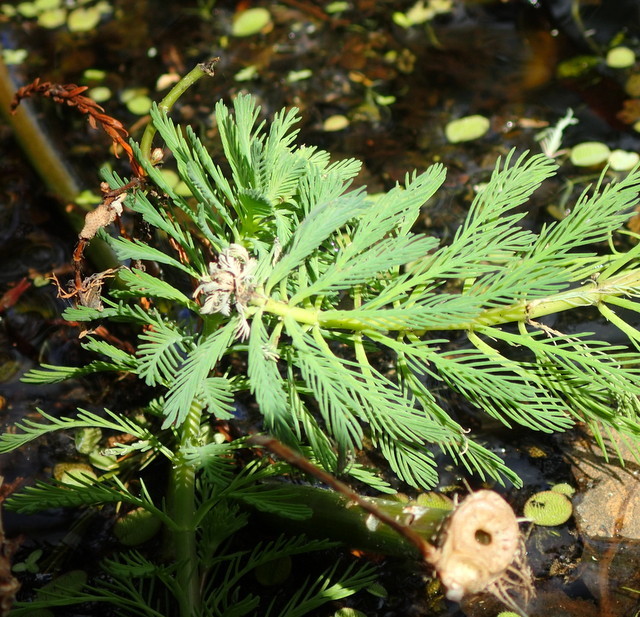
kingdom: Plantae
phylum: Tracheophyta
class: Magnoliopsida
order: Saxifragales
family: Haloragaceae
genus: Myriophyllum
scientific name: Myriophyllum aquaticum
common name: Parrot's feather
